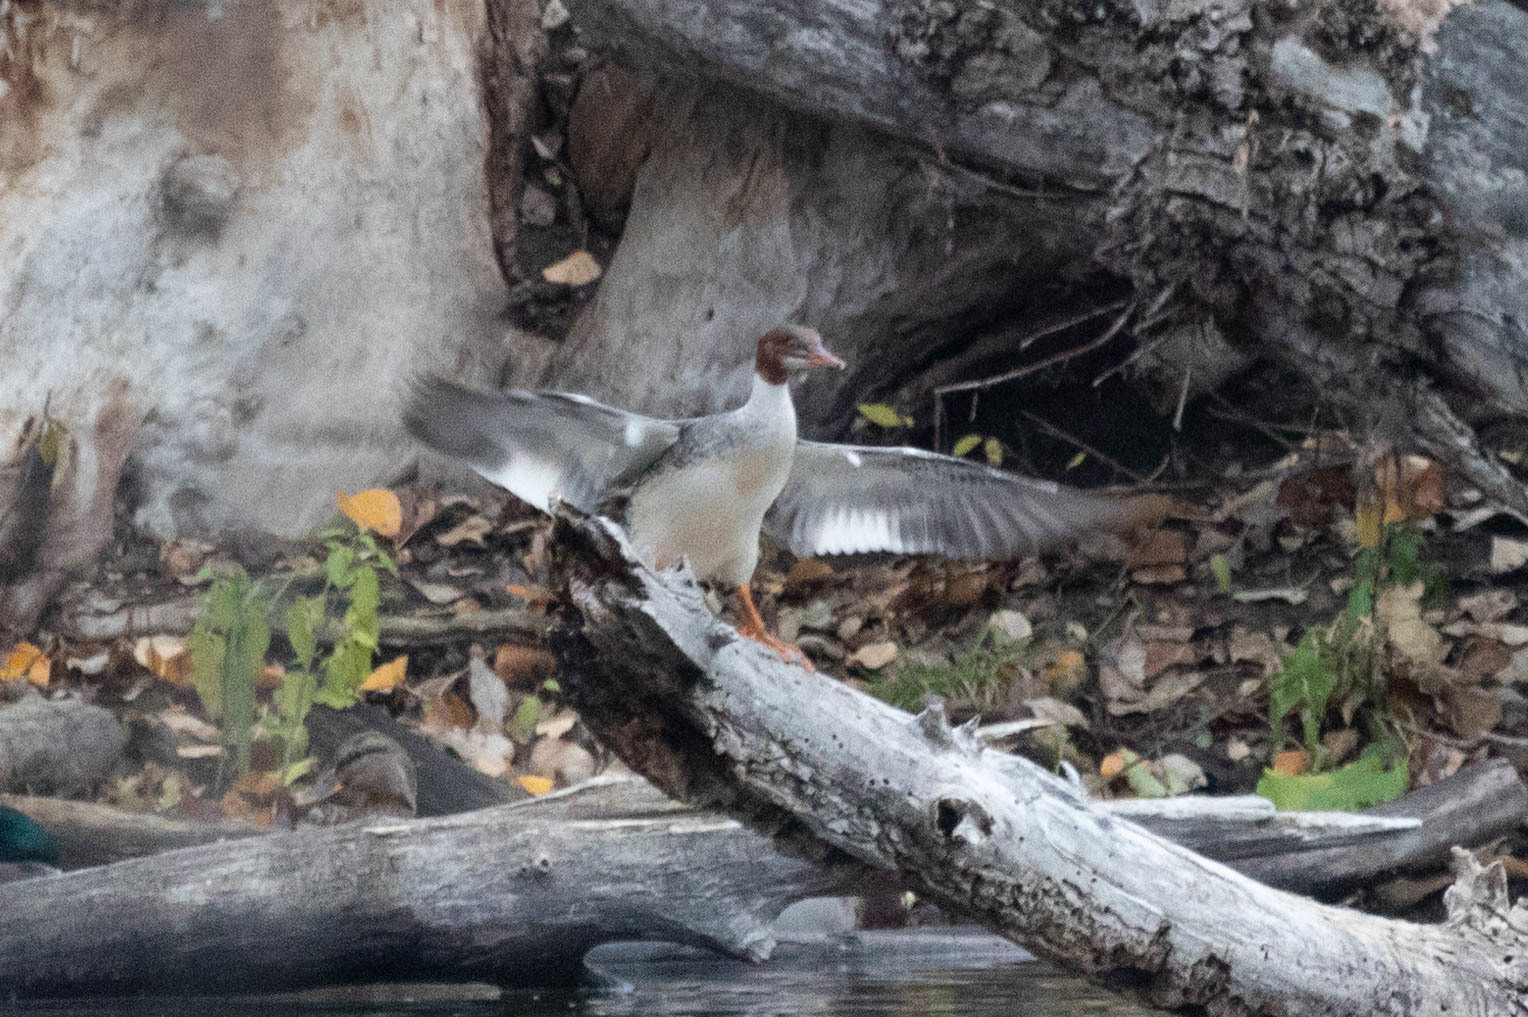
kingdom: Animalia
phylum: Chordata
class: Aves
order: Anseriformes
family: Anatidae
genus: Mergus
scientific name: Mergus merganser
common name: Common merganser
